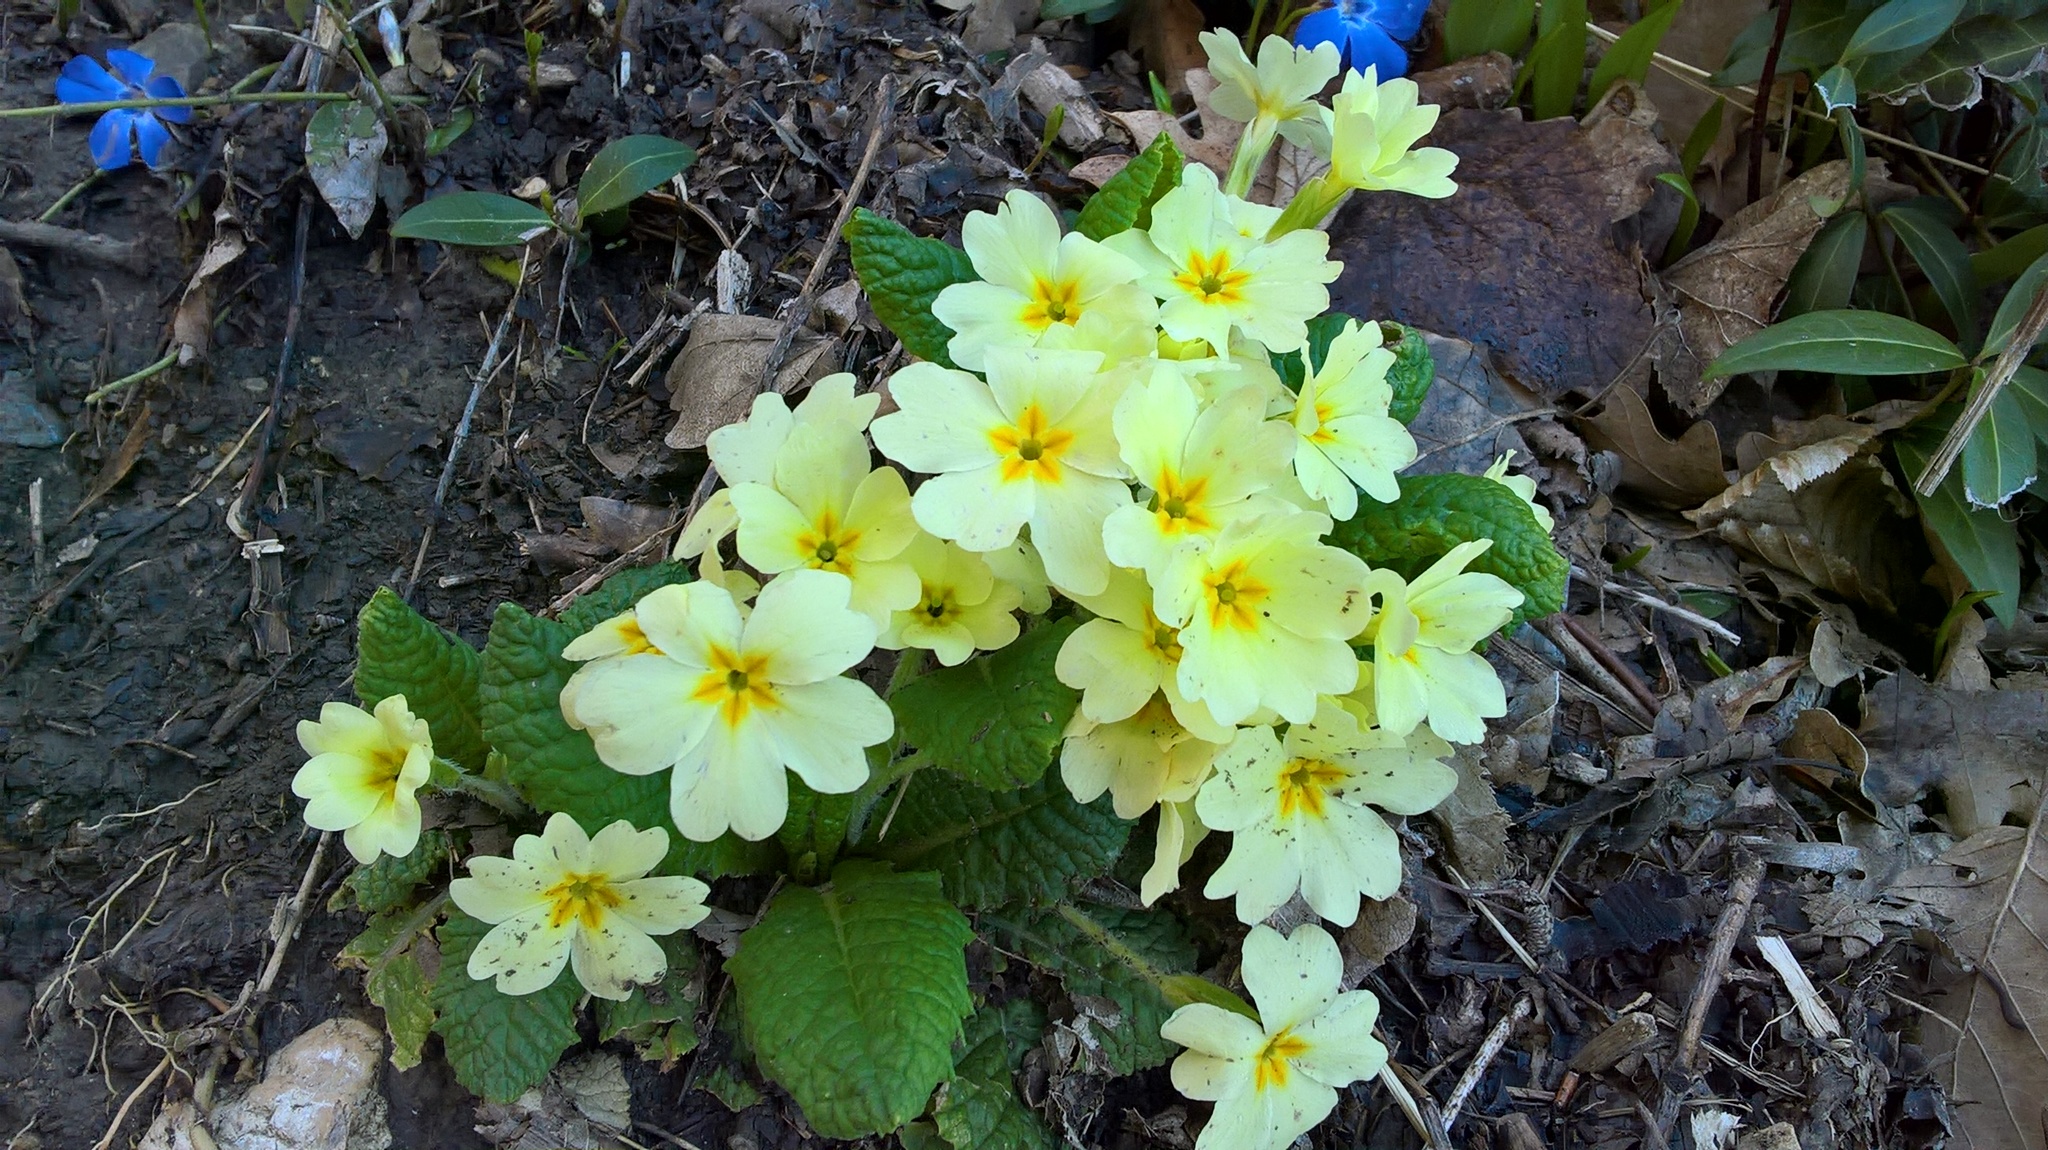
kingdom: Plantae
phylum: Tracheophyta
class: Magnoliopsida
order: Ericales
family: Primulaceae
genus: Primula
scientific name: Primula vulgaris
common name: Primrose
